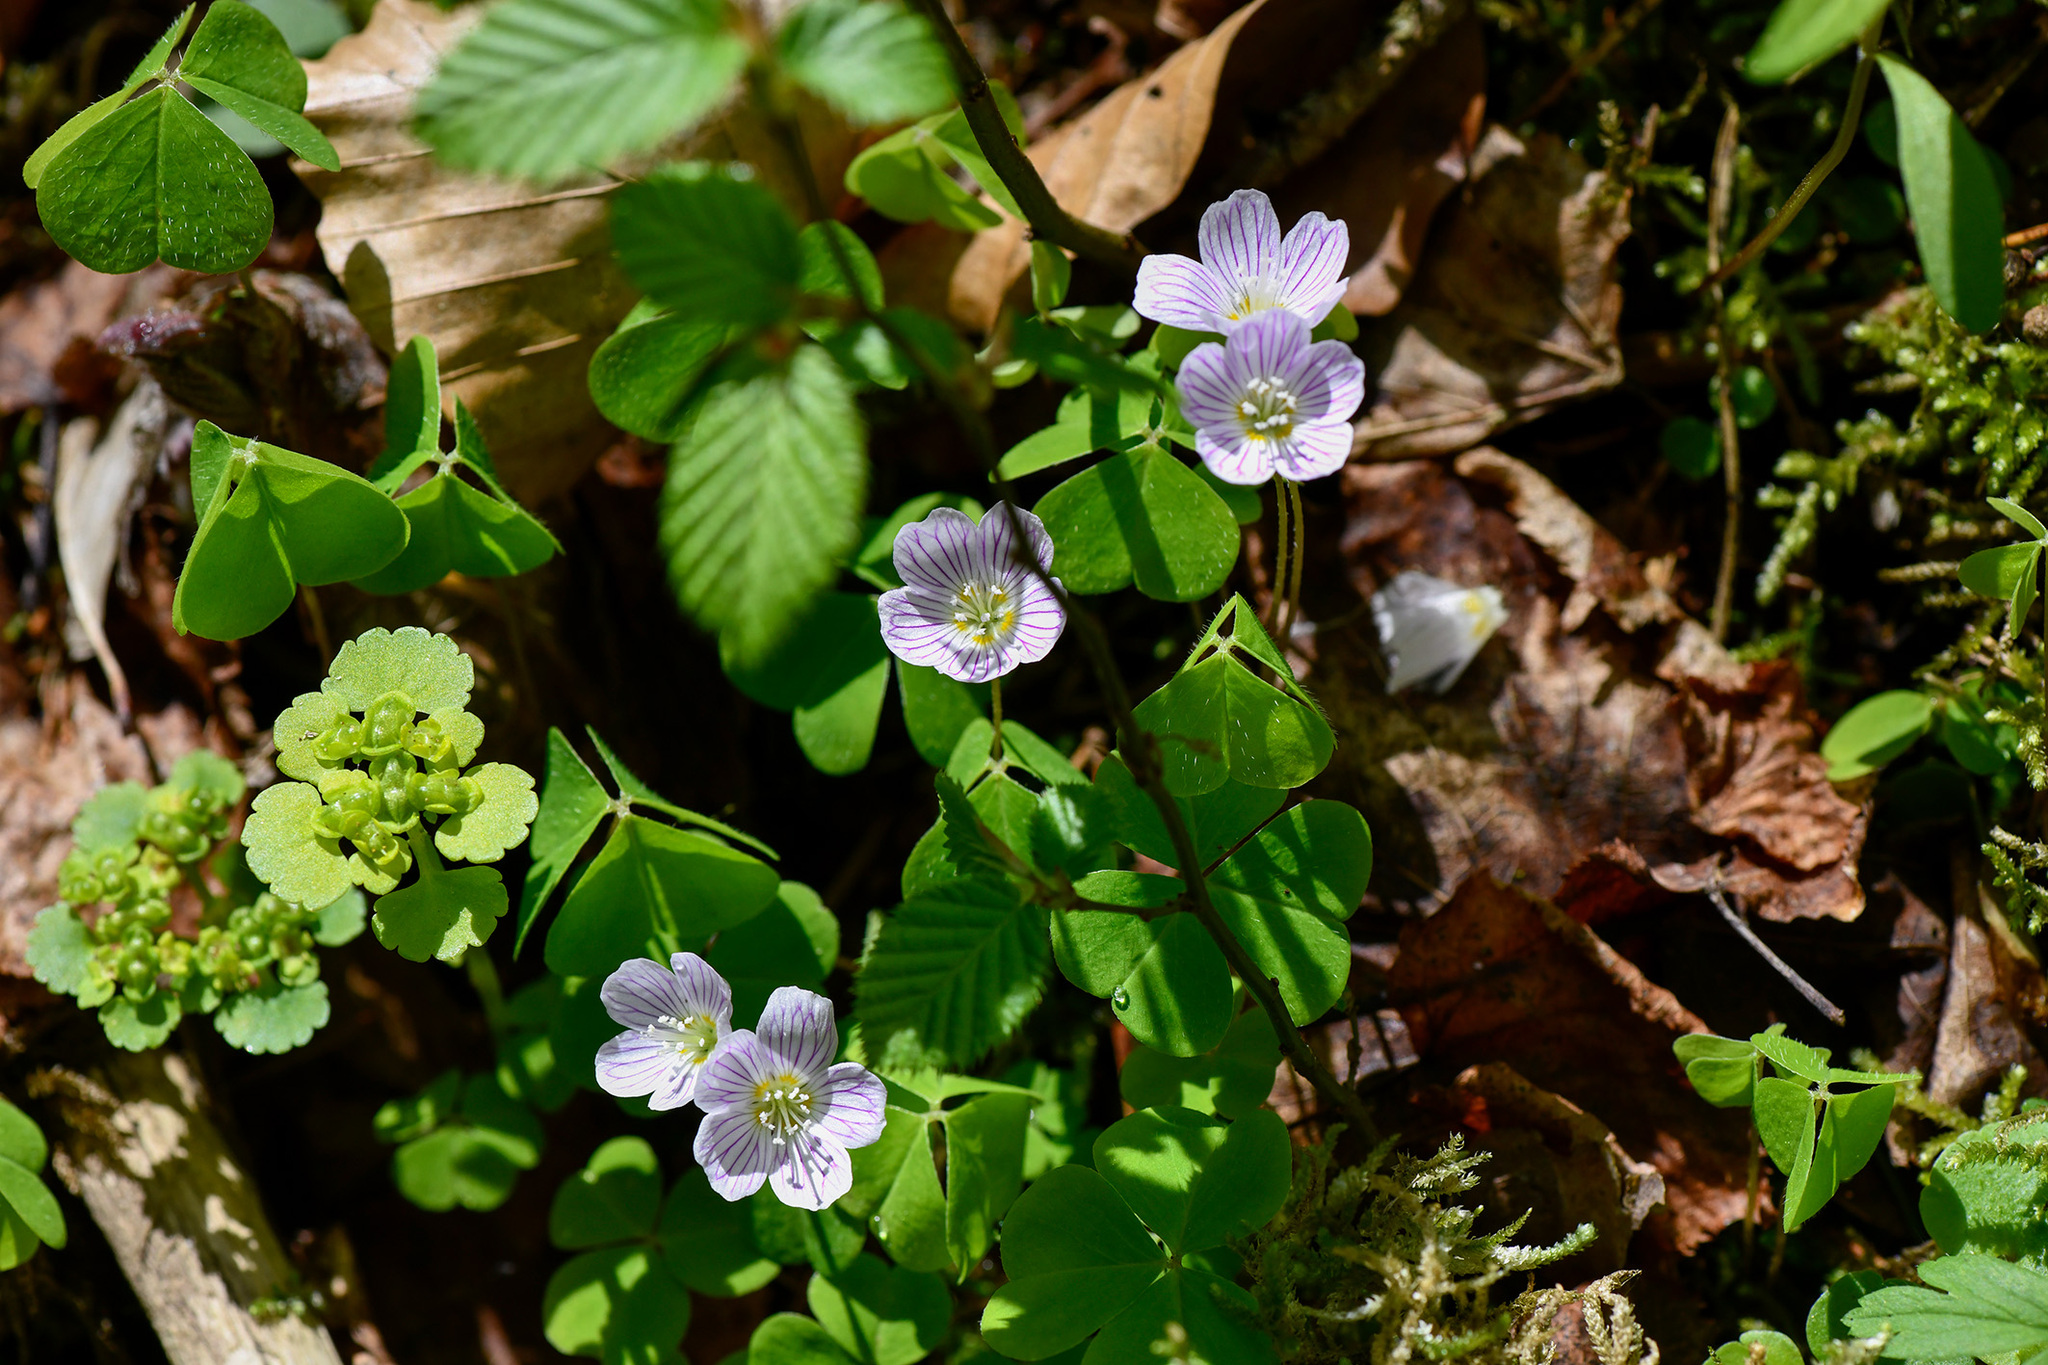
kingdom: Plantae
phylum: Tracheophyta
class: Magnoliopsida
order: Oxalidales
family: Oxalidaceae
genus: Oxalis
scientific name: Oxalis acetosella
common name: Wood-sorrel
